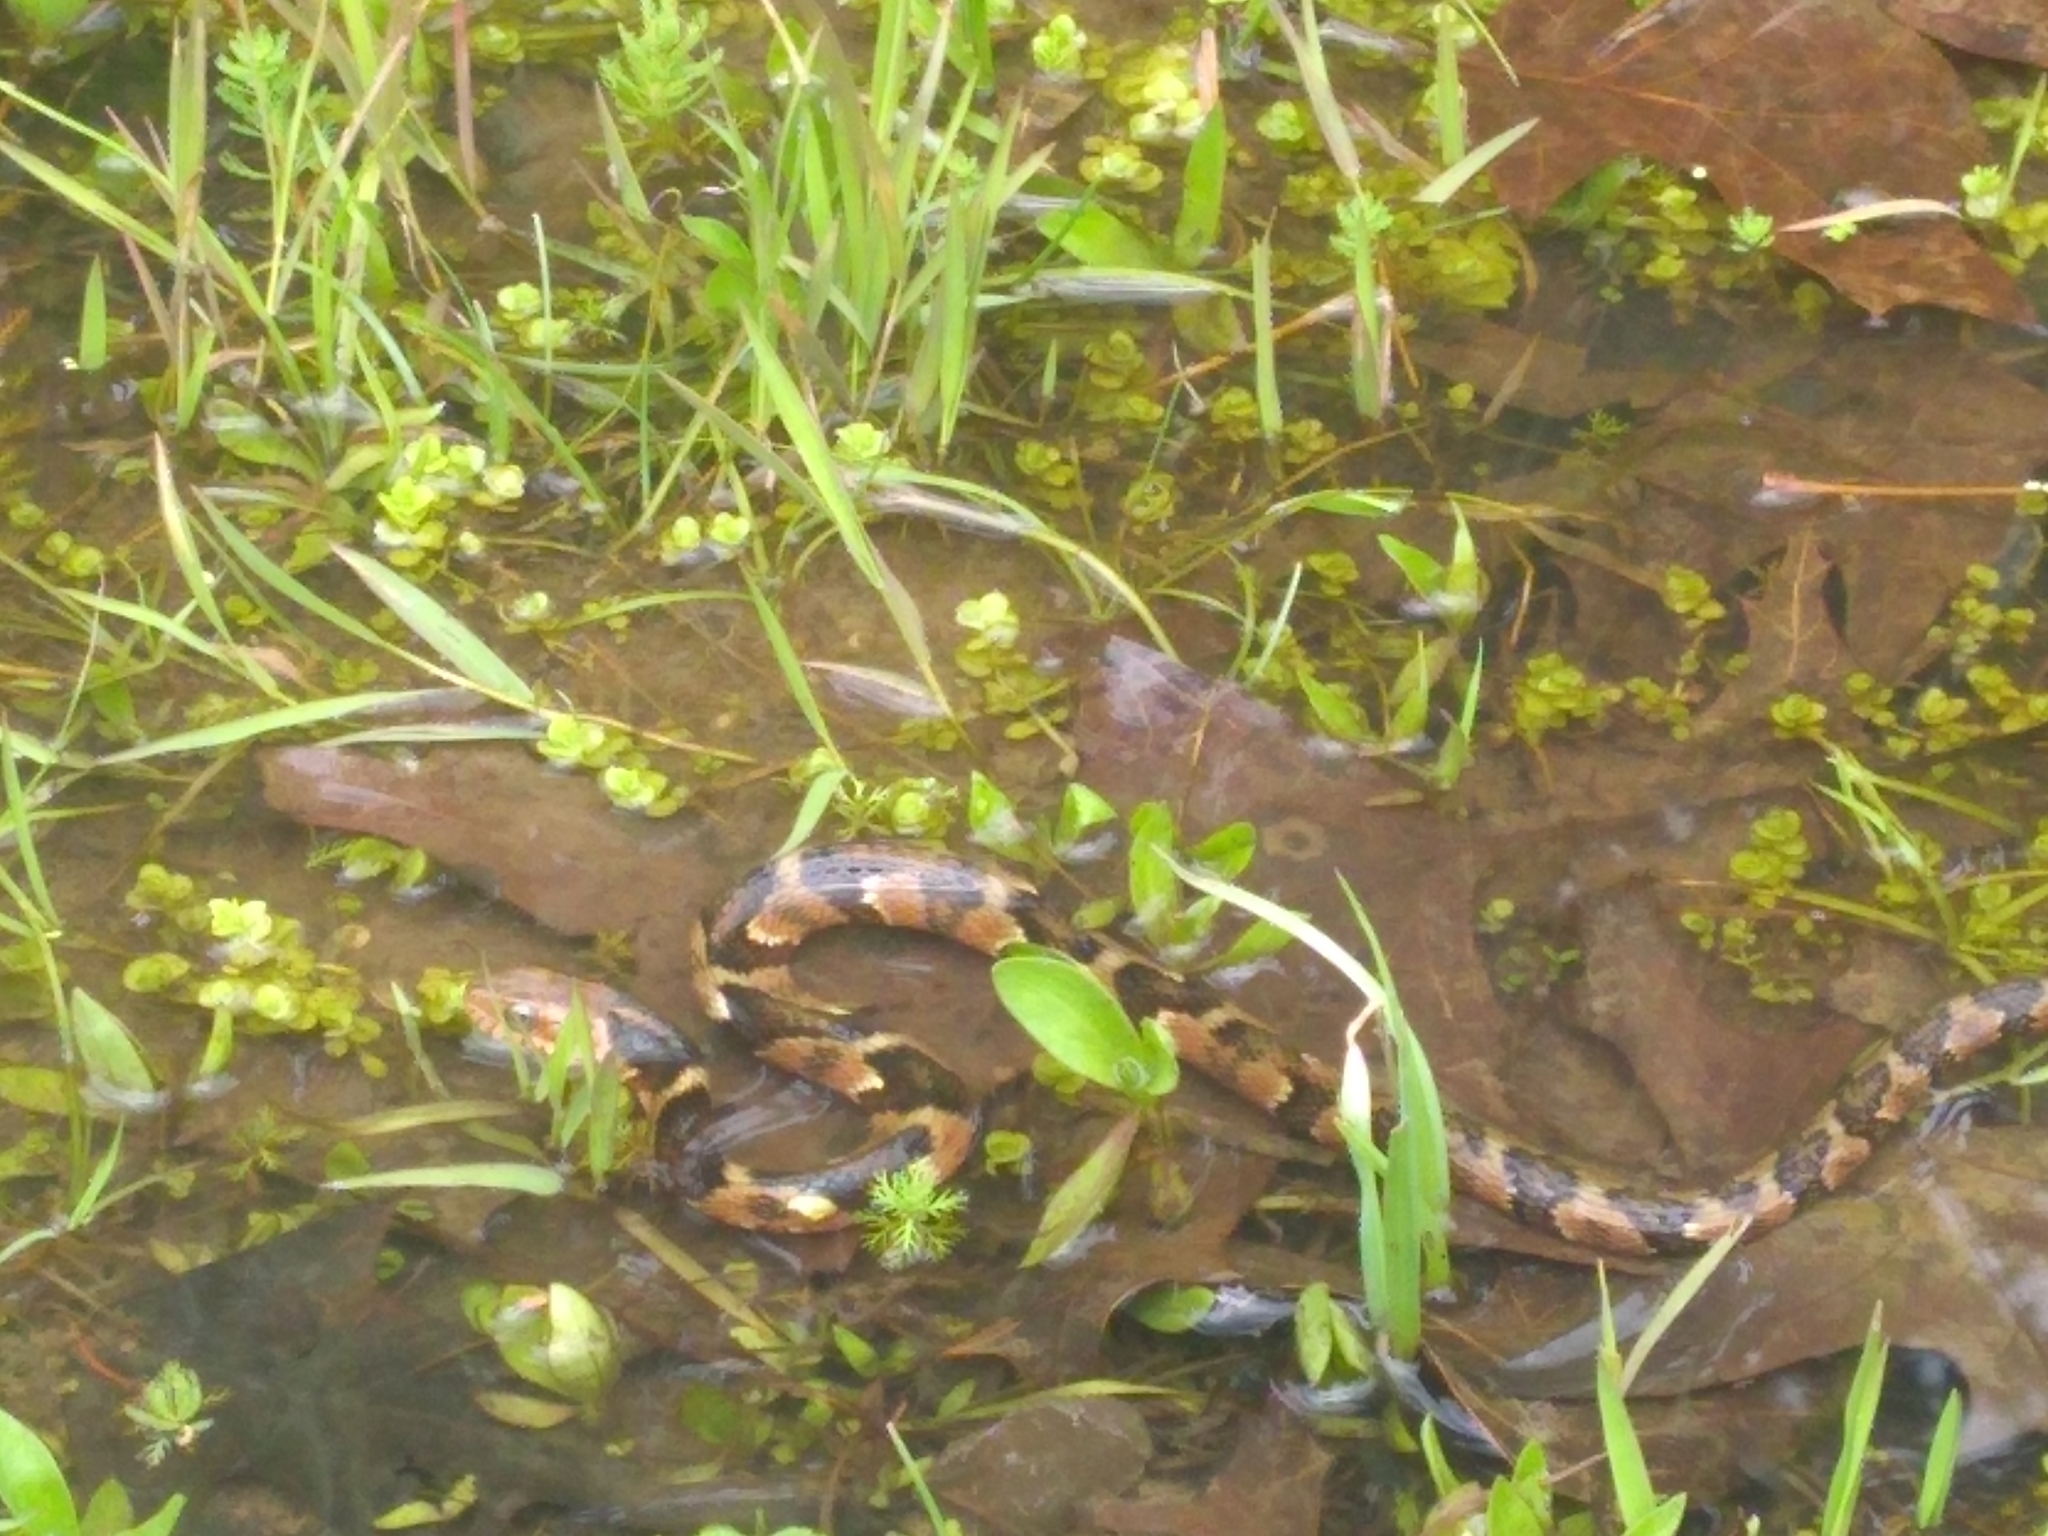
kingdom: Animalia
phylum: Chordata
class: Squamata
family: Colubridae
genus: Nerodia
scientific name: Nerodia fasciata
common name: Southern water snake
